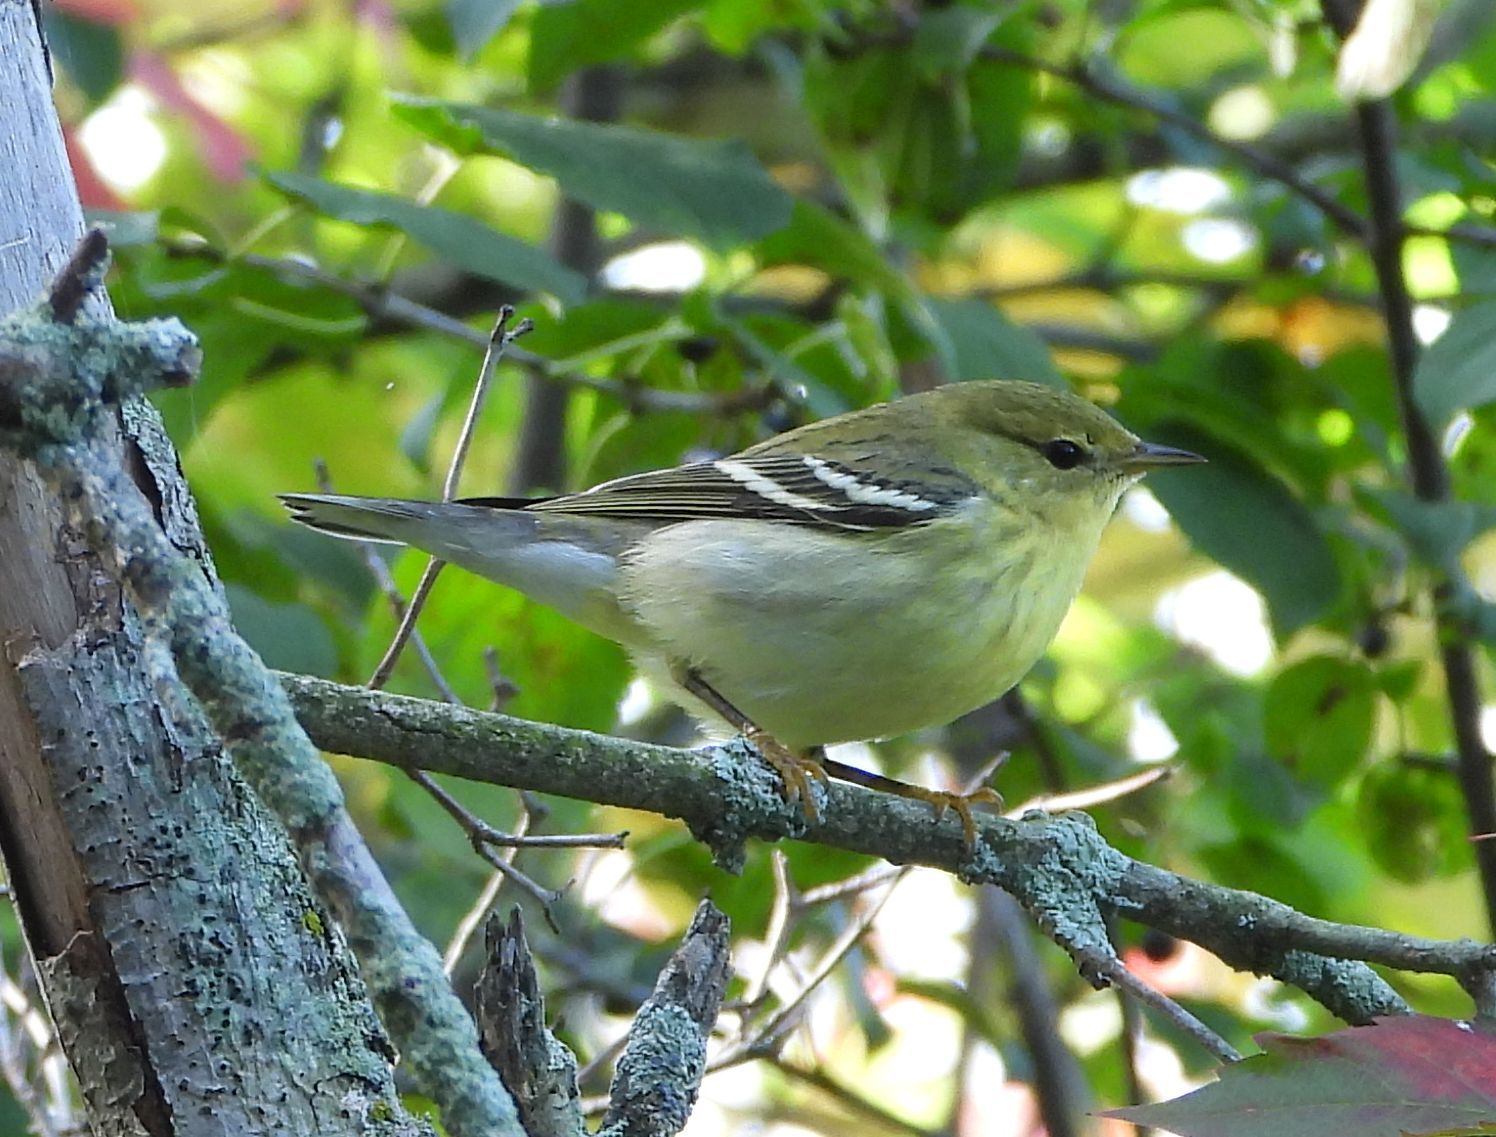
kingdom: Animalia
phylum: Chordata
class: Aves
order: Passeriformes
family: Parulidae
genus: Setophaga
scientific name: Setophaga striata
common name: Blackpoll warbler
